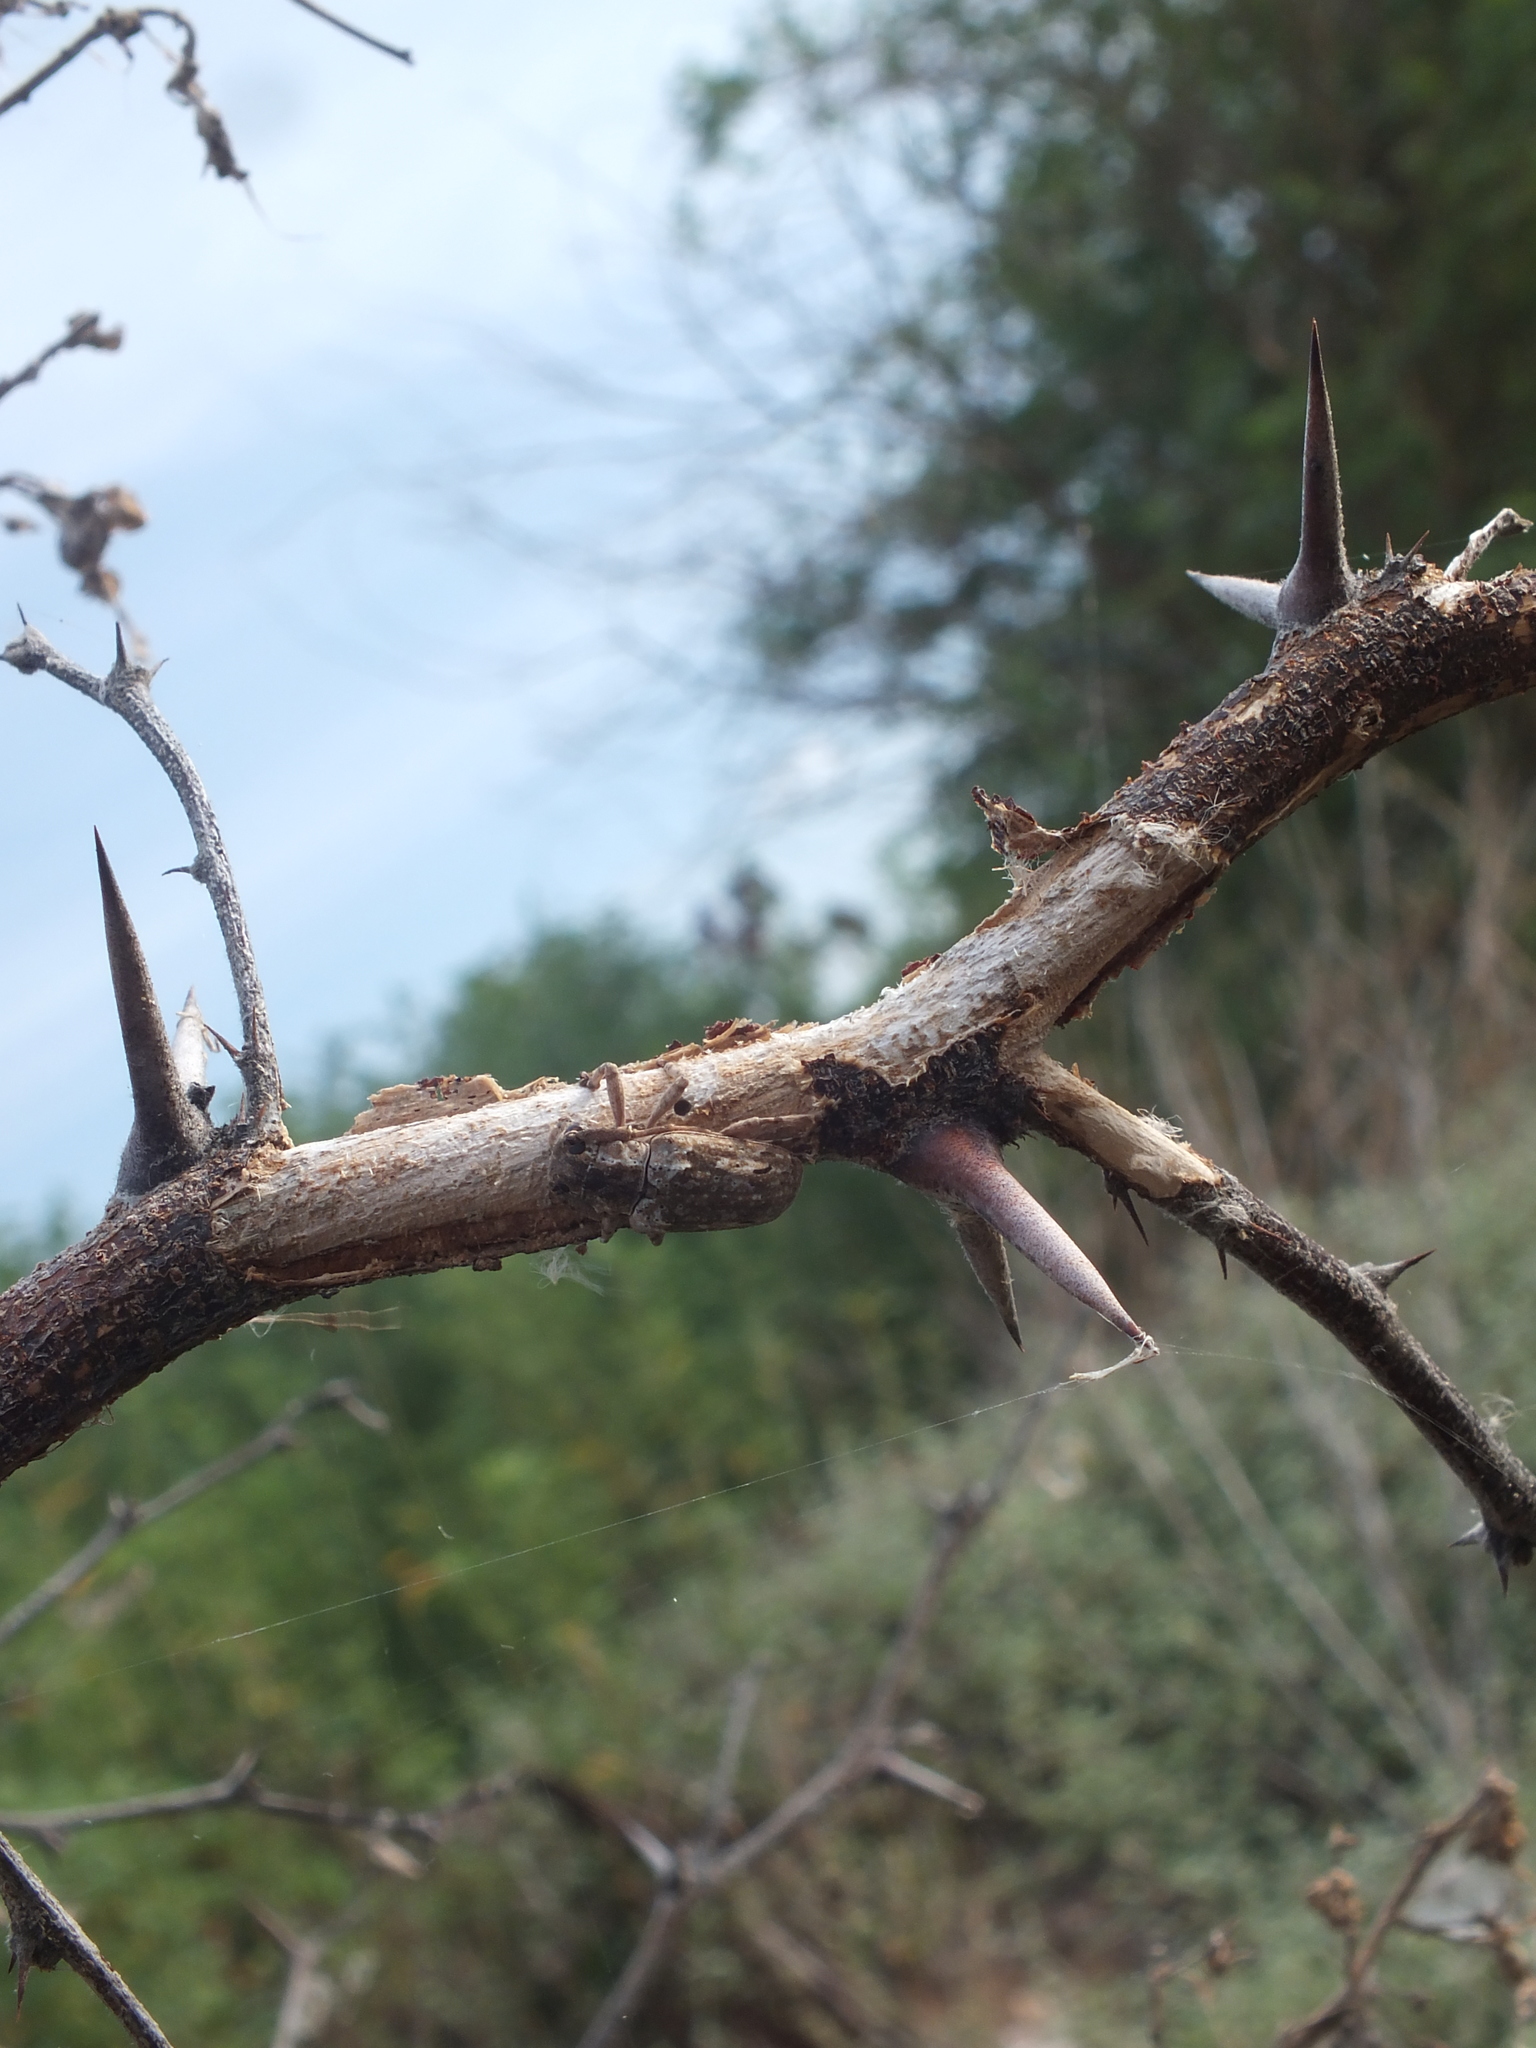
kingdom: Animalia
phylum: Arthropoda
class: Insecta
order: Coleoptera
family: Cerambycidae
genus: Coptops
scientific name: Coptops aedificator
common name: Long-horned beetle
